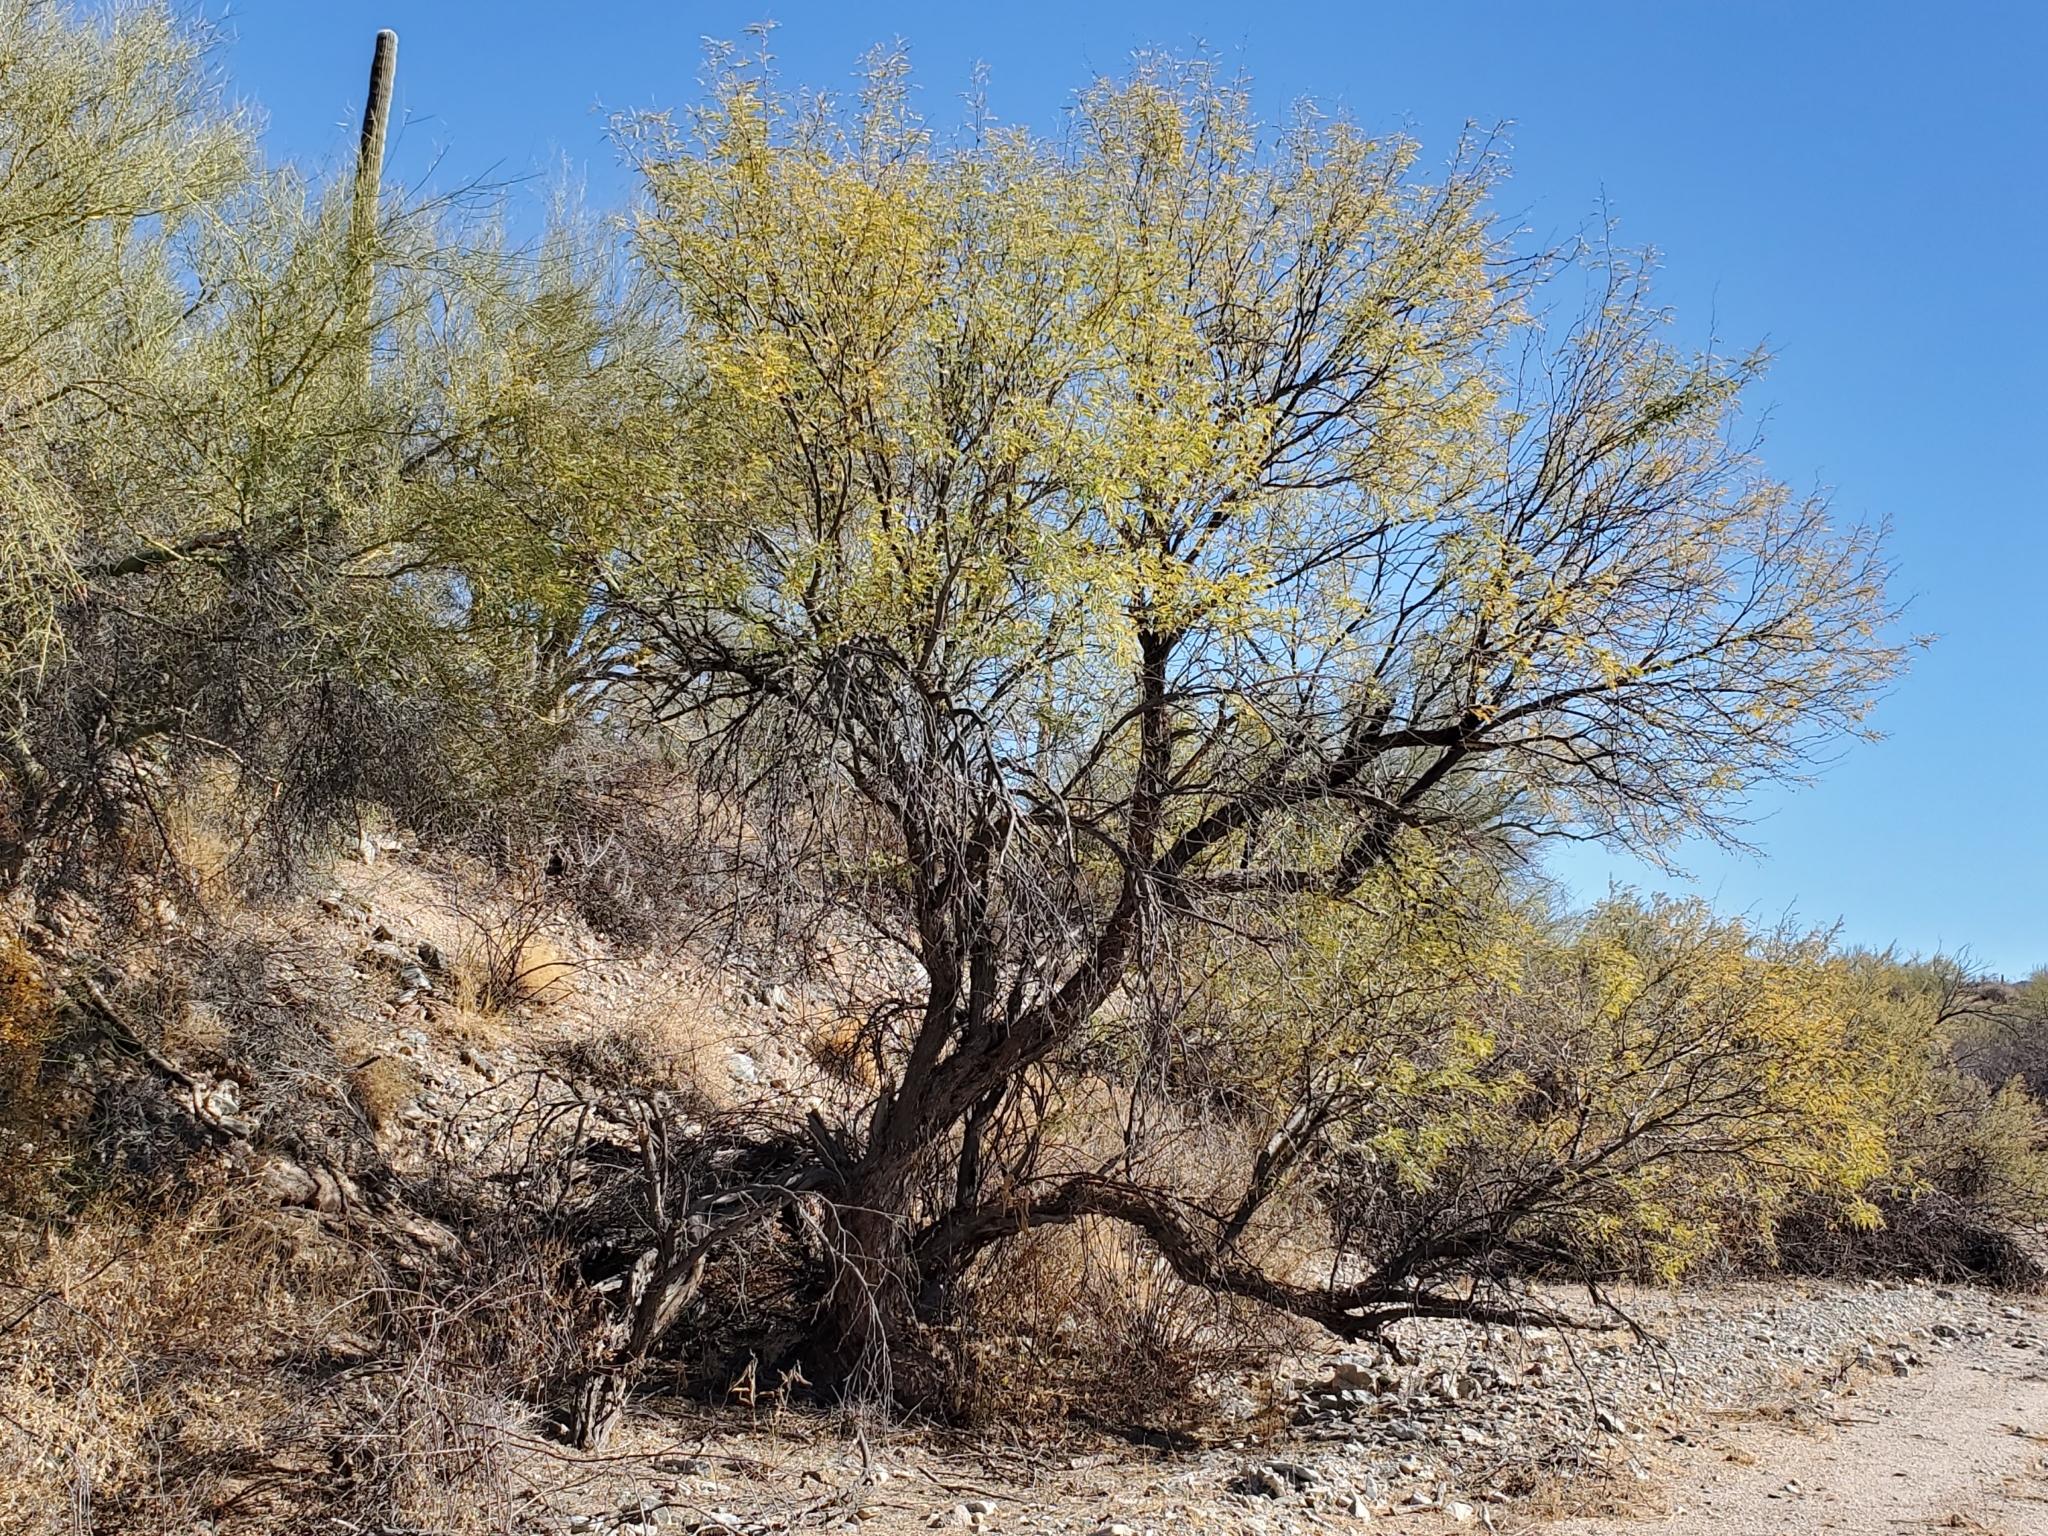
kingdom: Plantae
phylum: Tracheophyta
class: Magnoliopsida
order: Fabales
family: Fabaceae
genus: Prosopis
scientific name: Prosopis velutina
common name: Velvet mesquite
